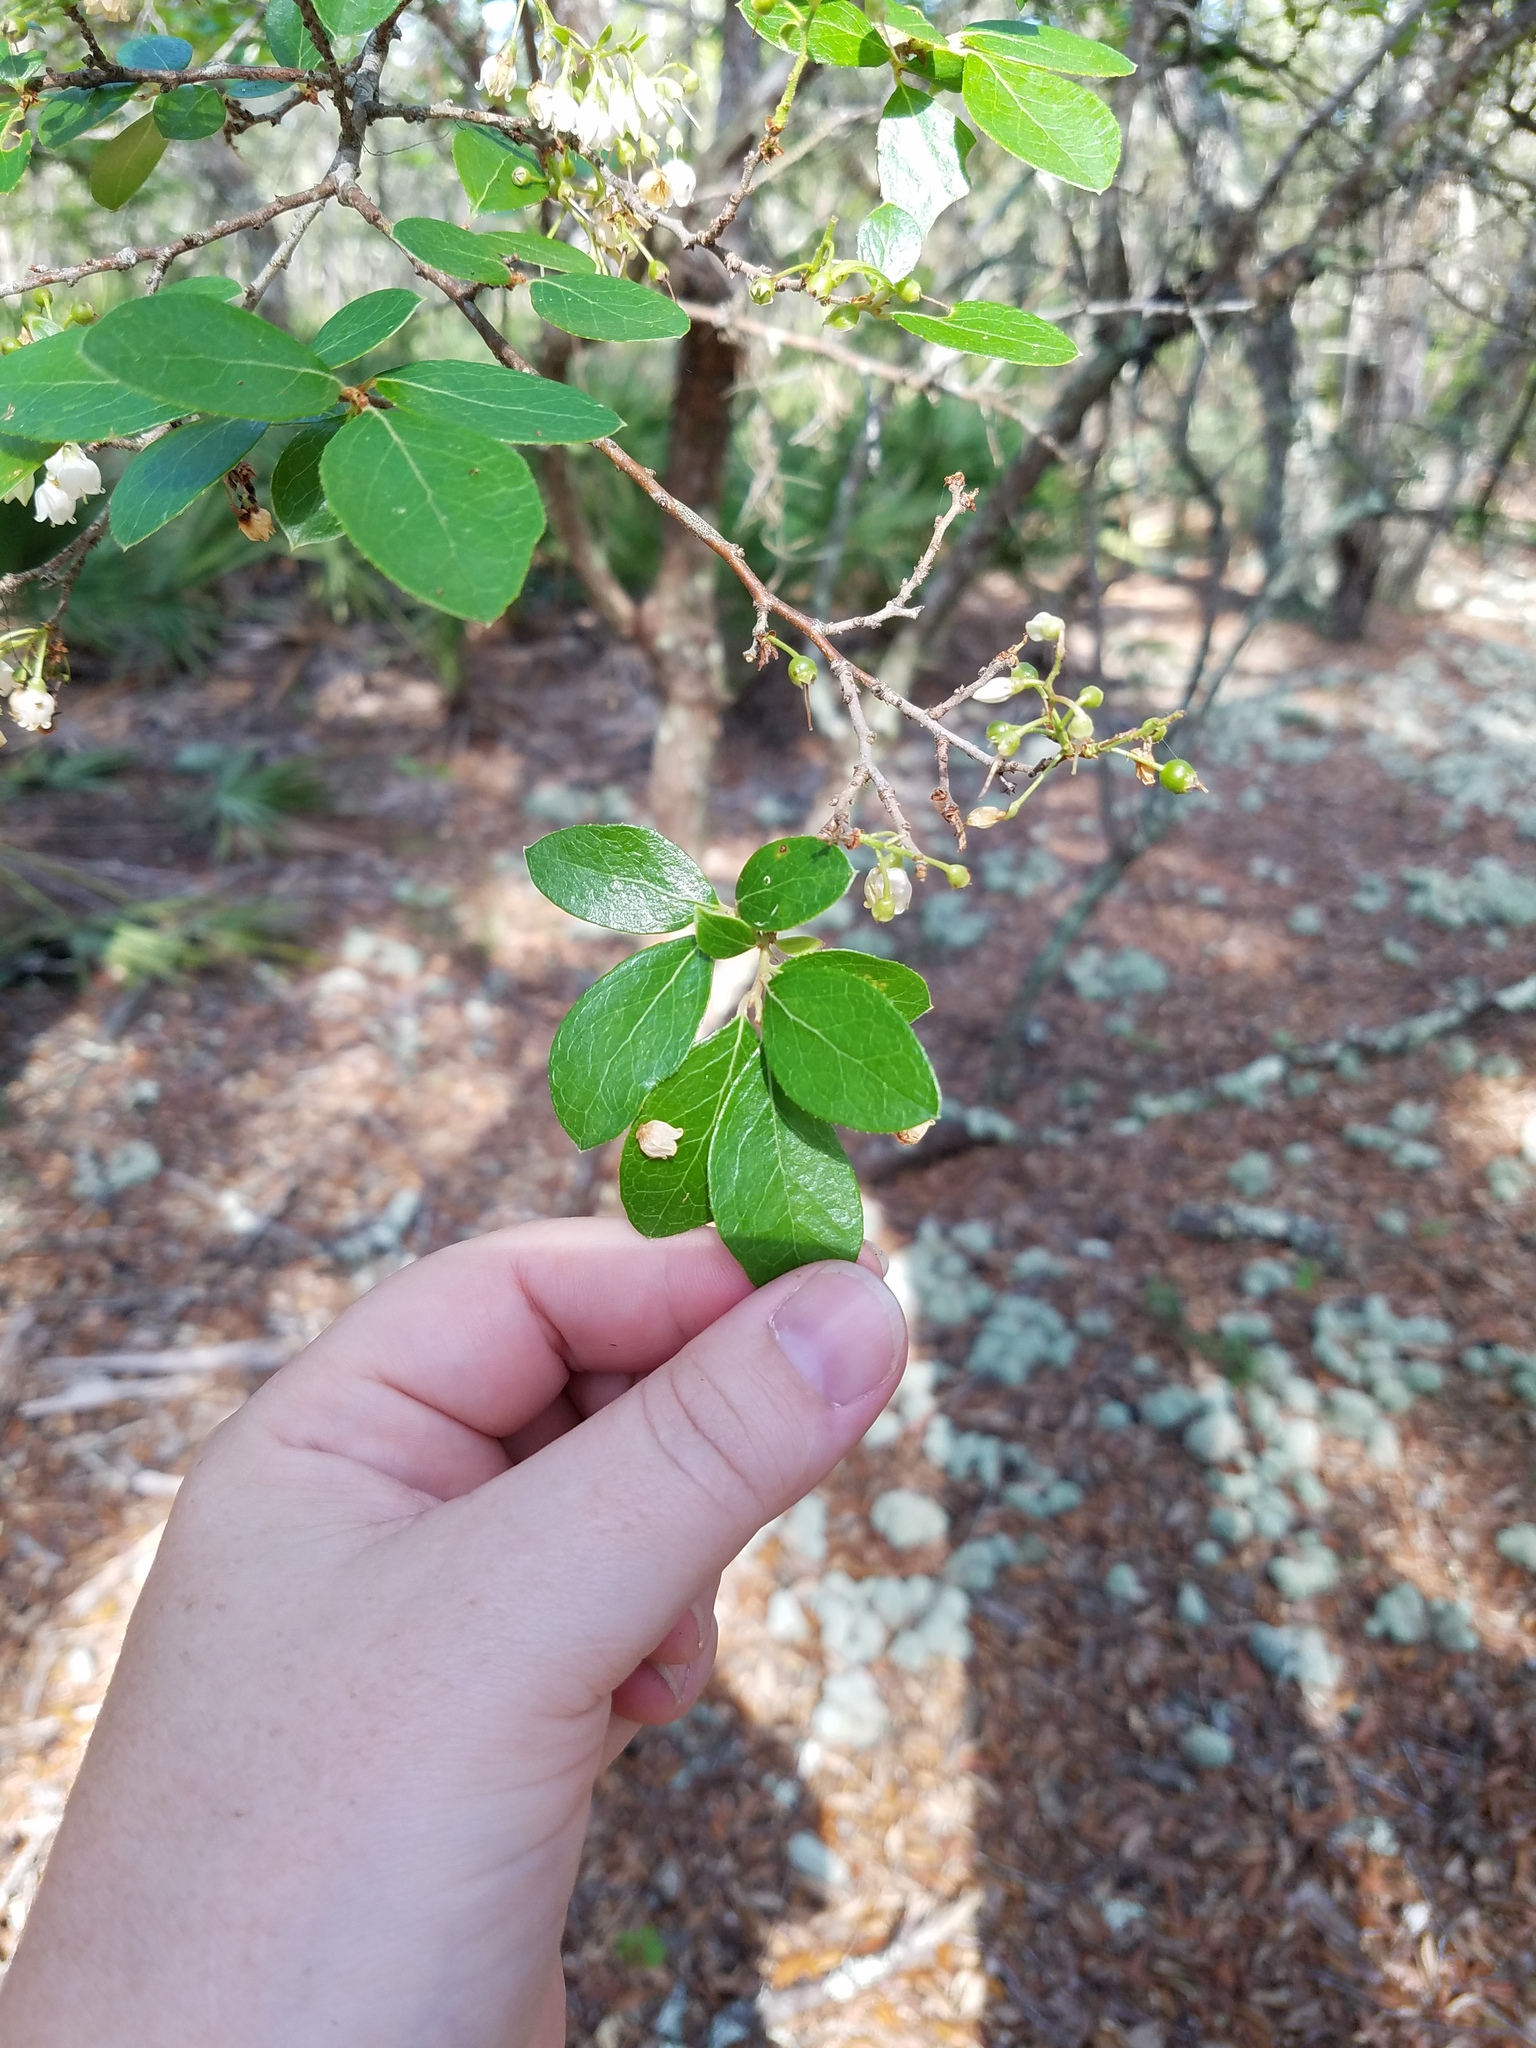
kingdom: Plantae
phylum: Tracheophyta
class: Magnoliopsida
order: Ericales
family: Ericaceae
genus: Vaccinium
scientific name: Vaccinium arboreum
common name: Farkleberry
